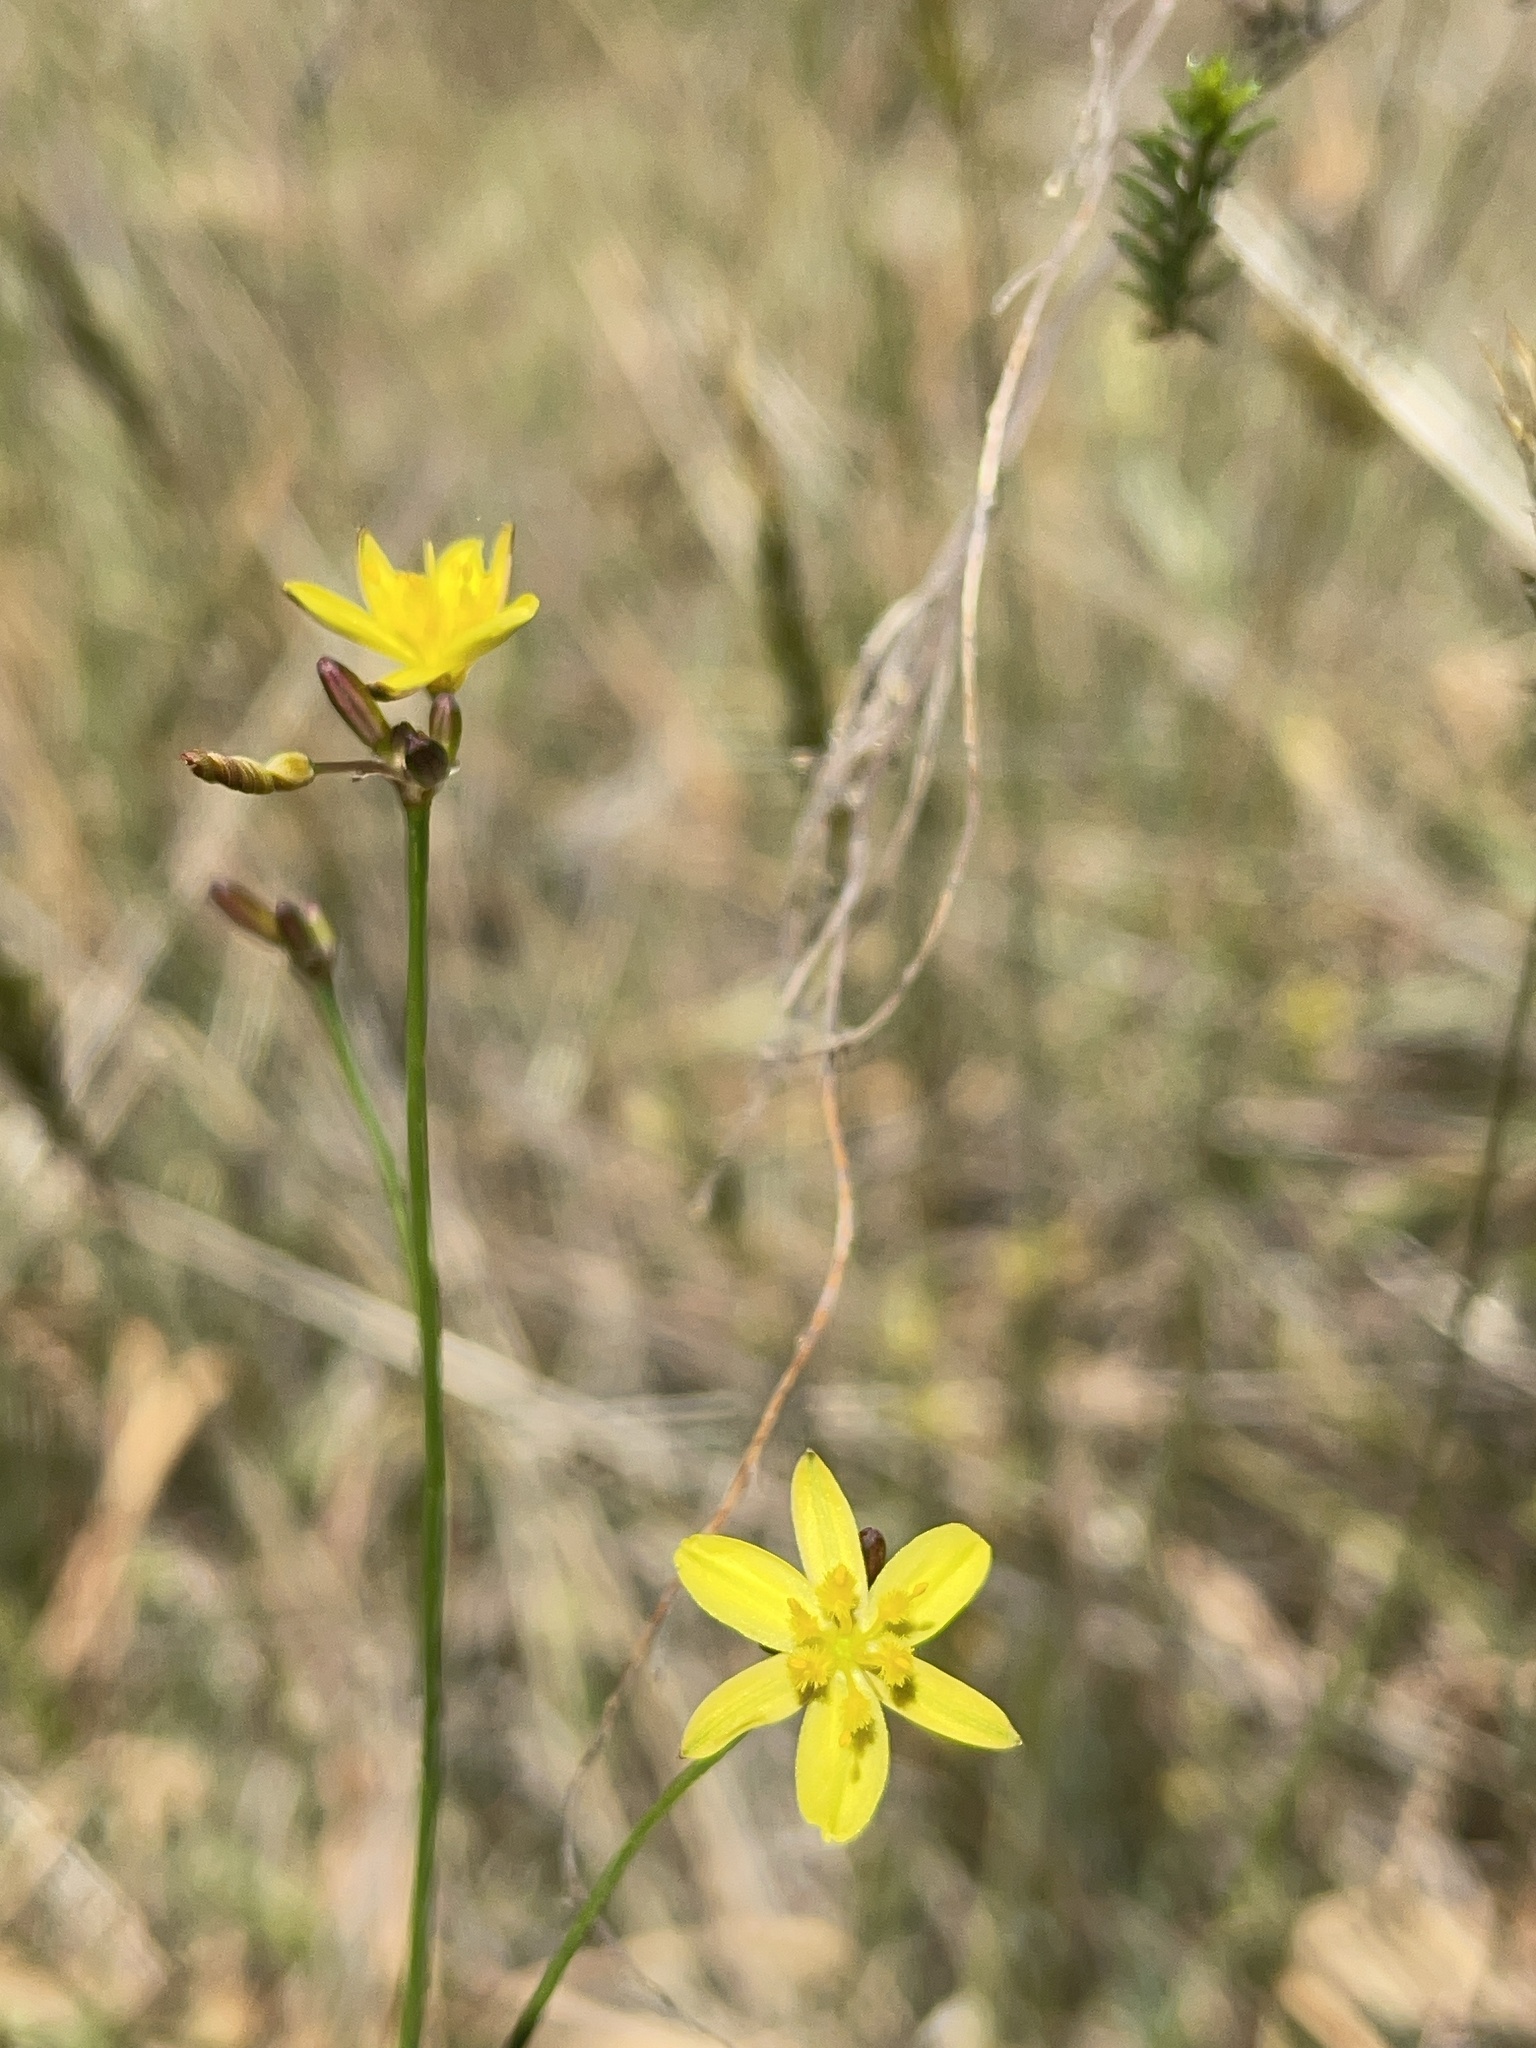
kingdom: Plantae
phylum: Tracheophyta
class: Liliopsida
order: Asparagales
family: Asphodelaceae
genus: Tricoryne
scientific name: Tricoryne elatior
